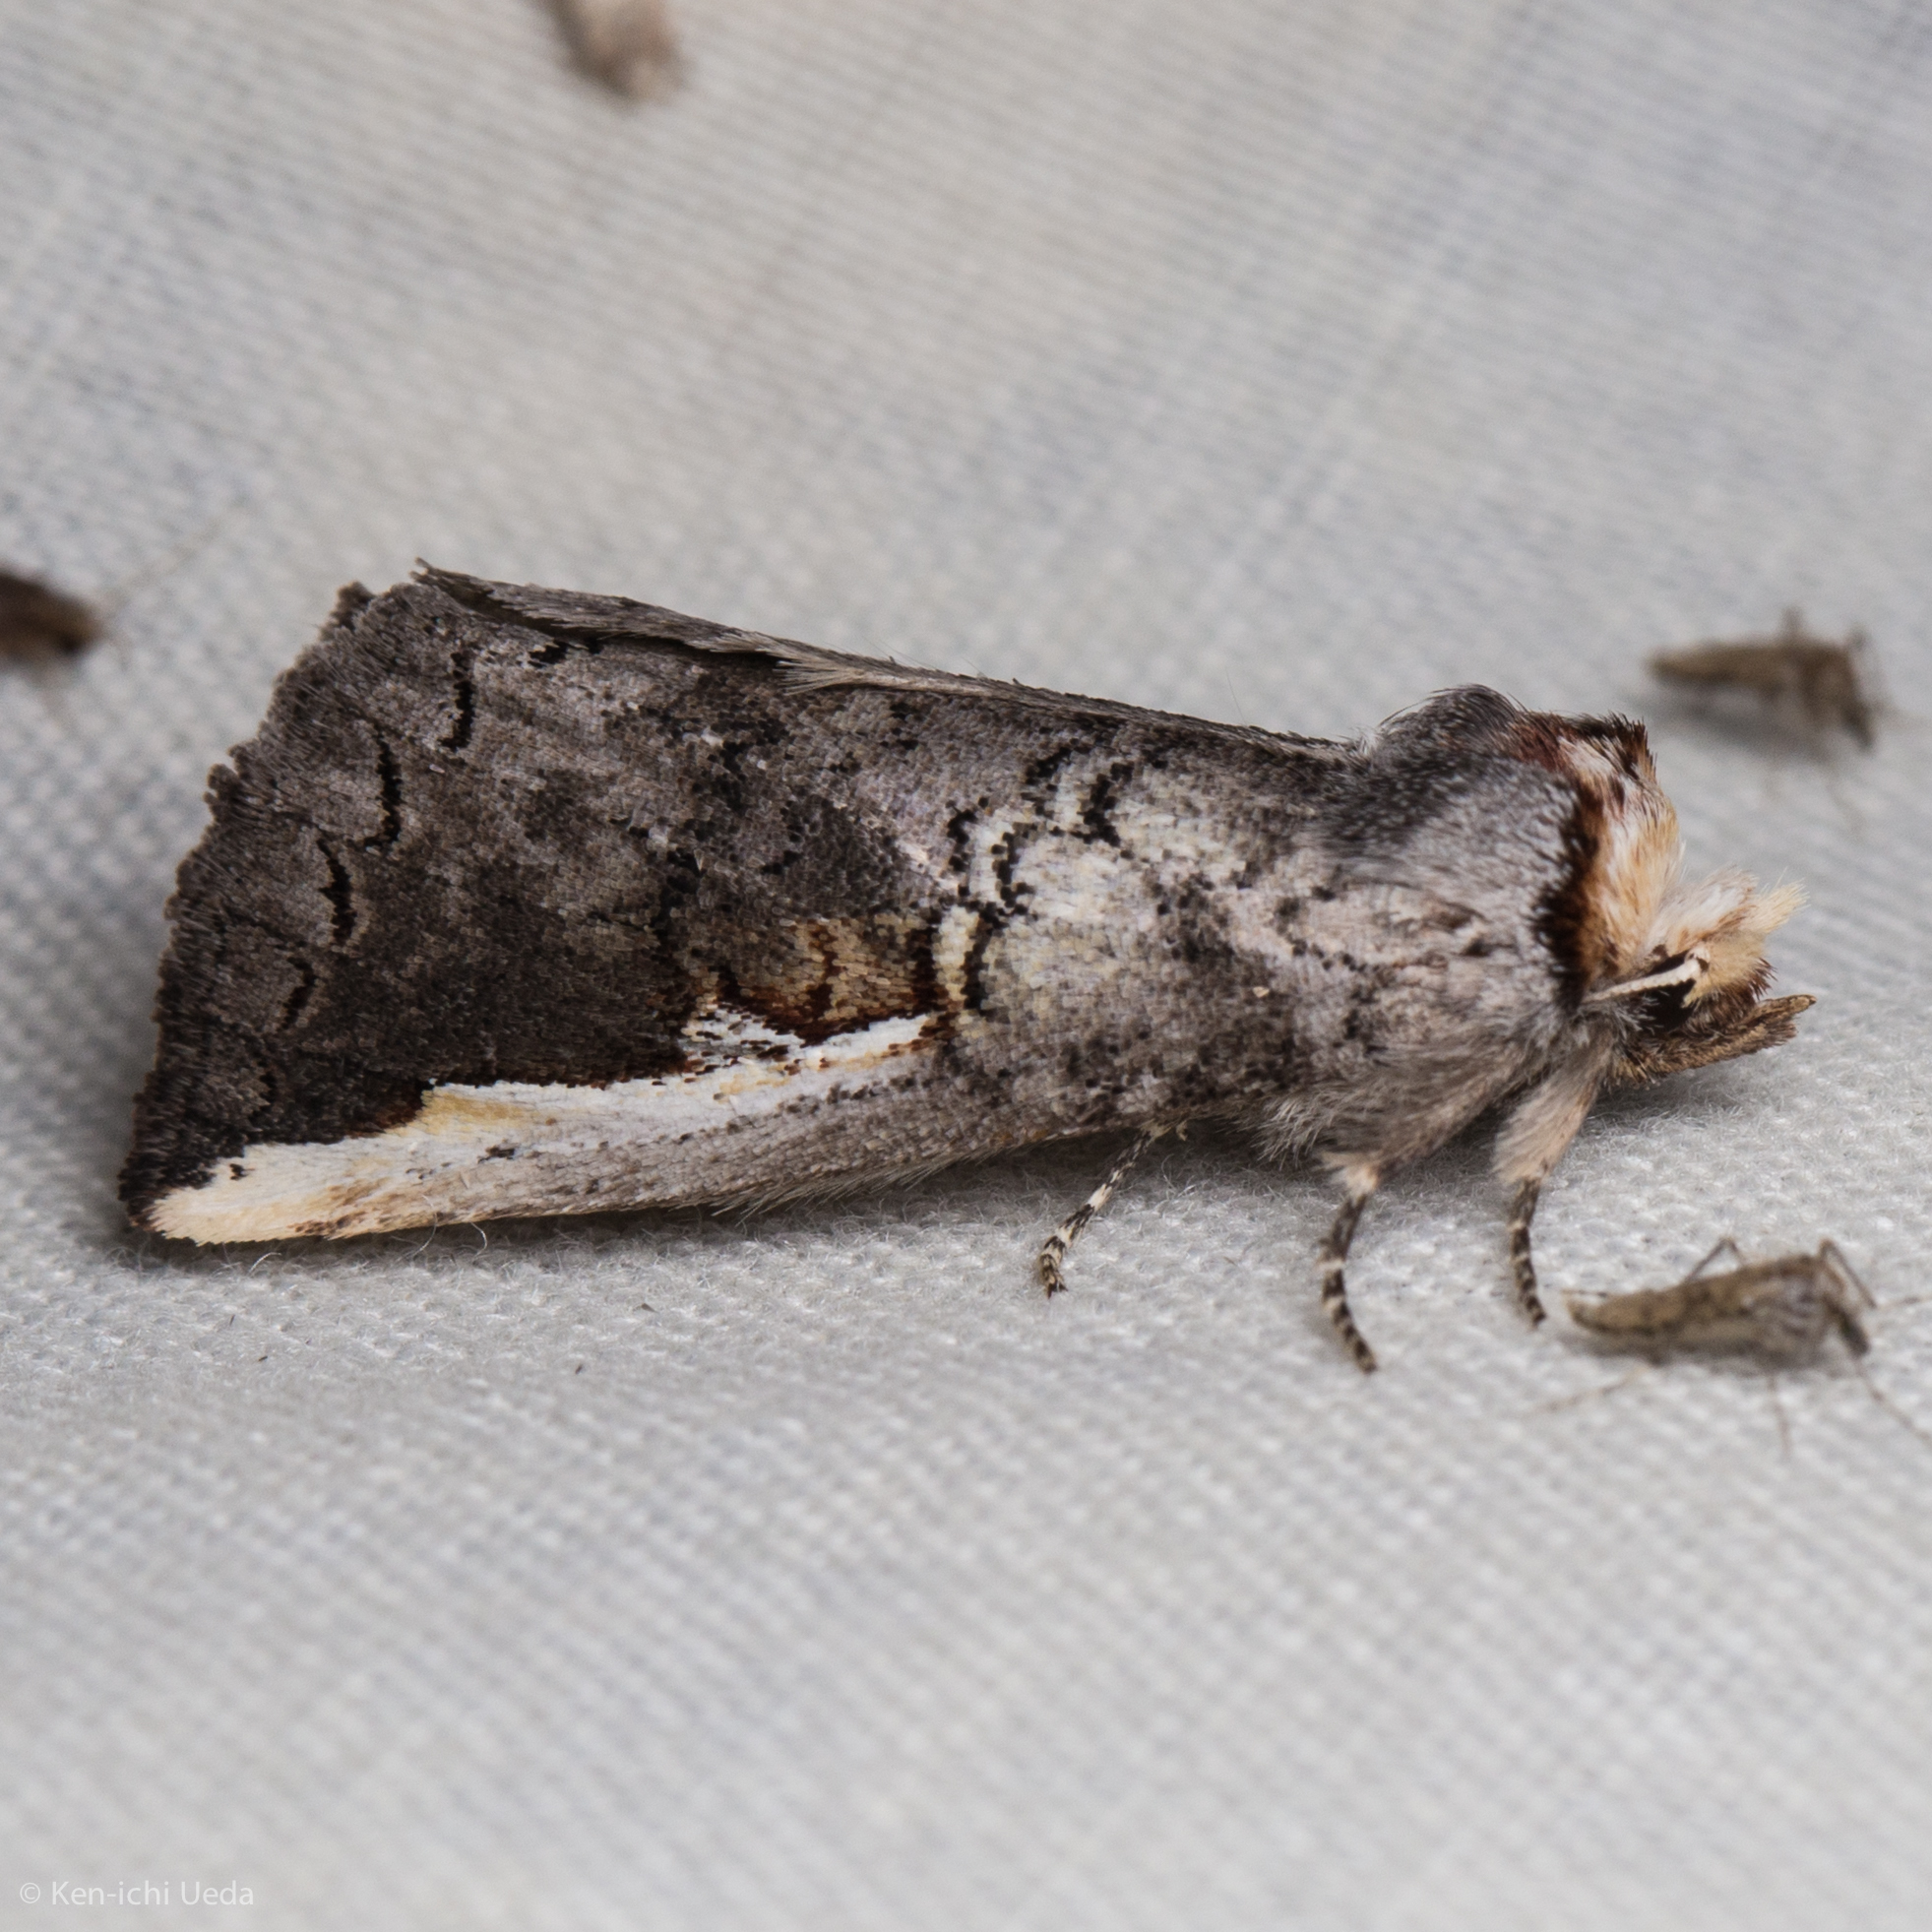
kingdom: Animalia
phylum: Arthropoda
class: Insecta
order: Lepidoptera
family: Notodontidae
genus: Symmerista
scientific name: Symmerista
